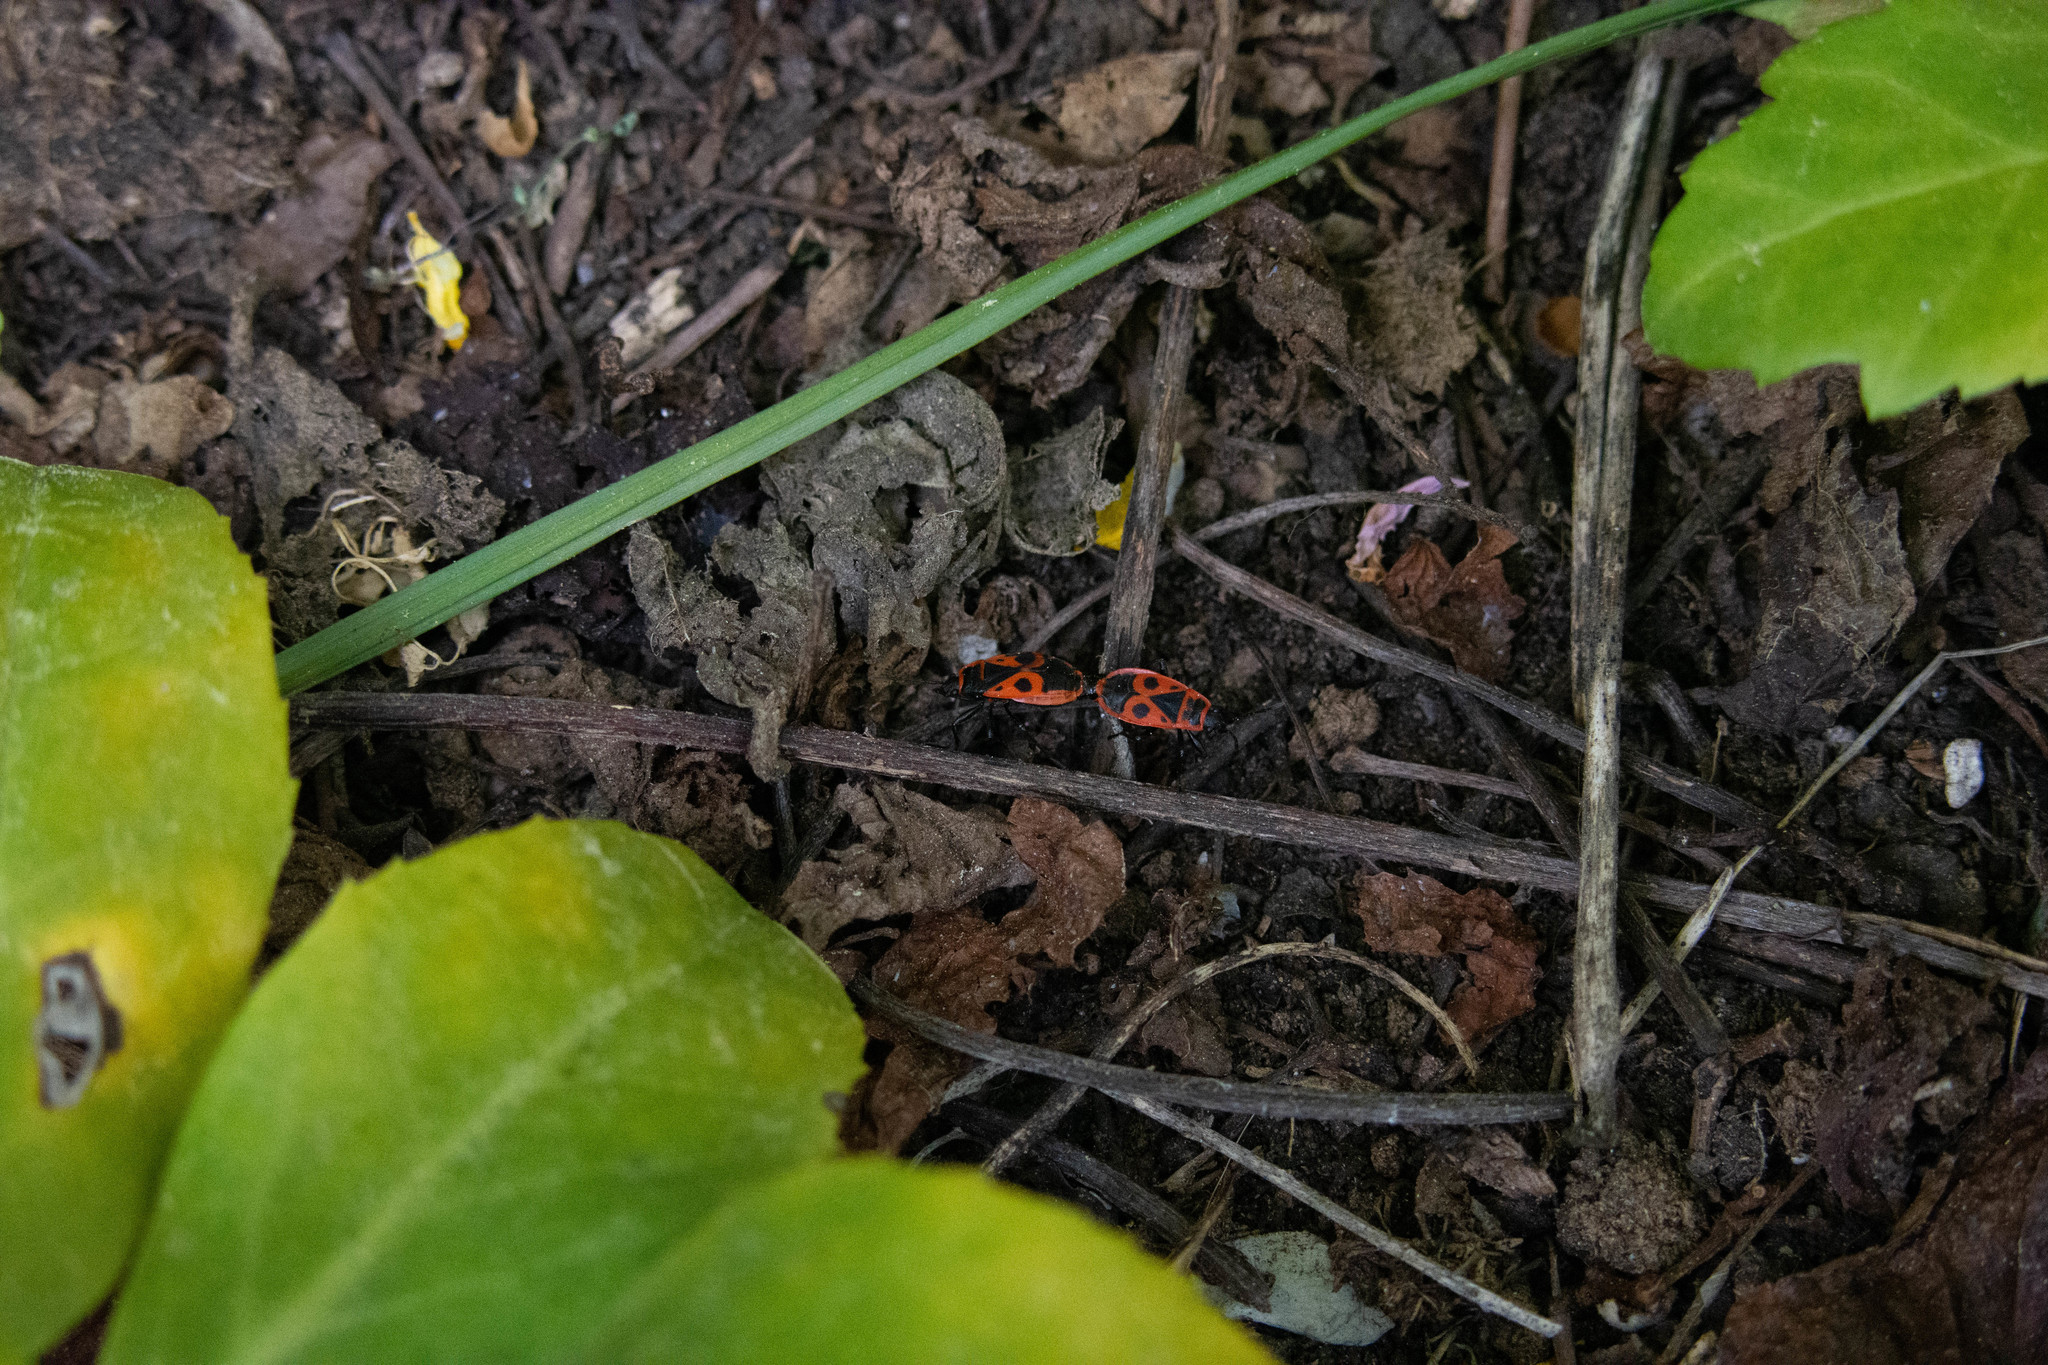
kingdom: Animalia
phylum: Arthropoda
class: Insecta
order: Hemiptera
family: Pyrrhocoridae
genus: Pyrrhocoris
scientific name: Pyrrhocoris apterus
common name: Firebug
